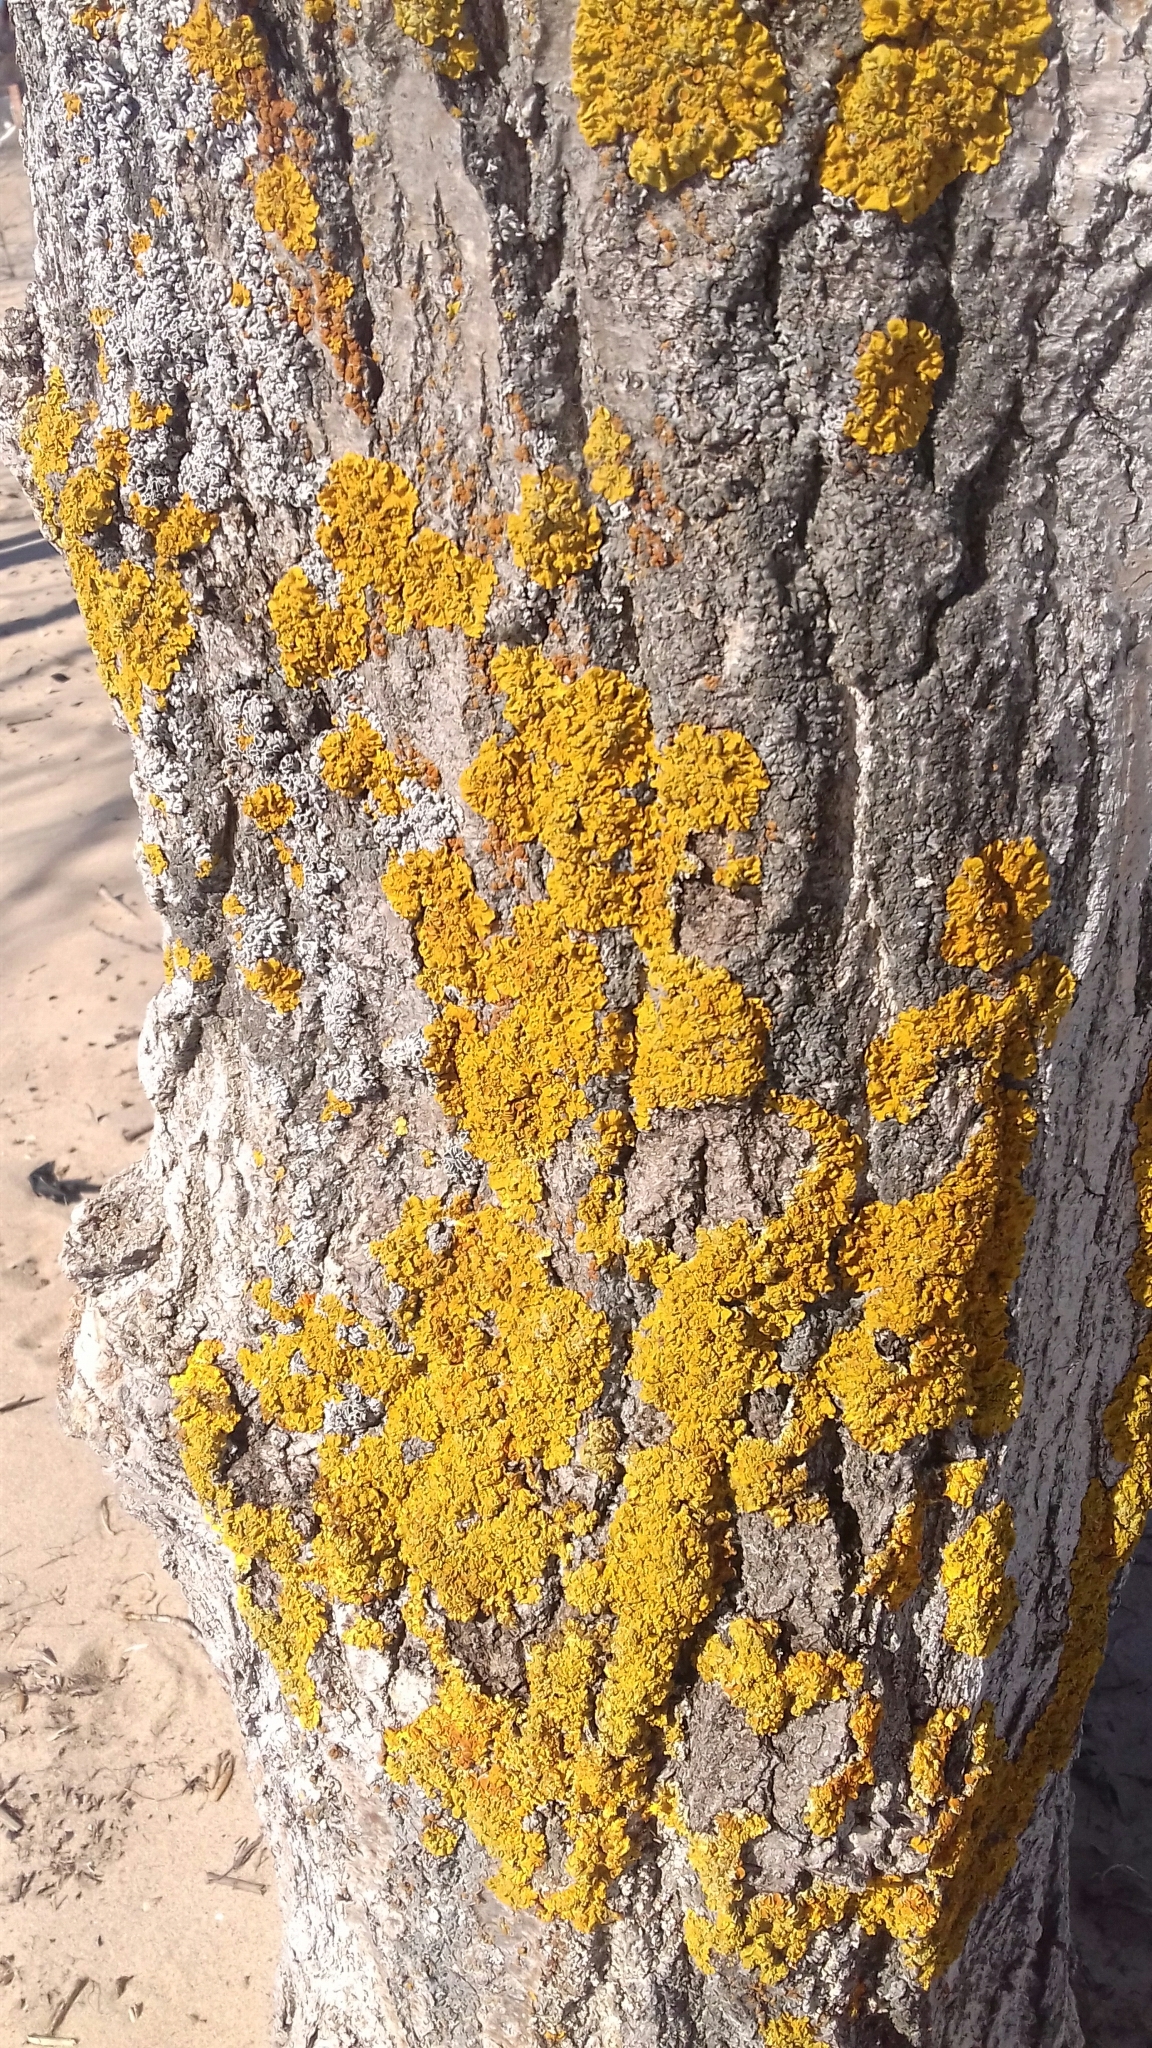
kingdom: Fungi
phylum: Ascomycota
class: Lecanoromycetes
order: Teloschistales
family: Teloschistaceae
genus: Xanthoria
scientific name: Xanthoria parietina
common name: Common orange lichen
